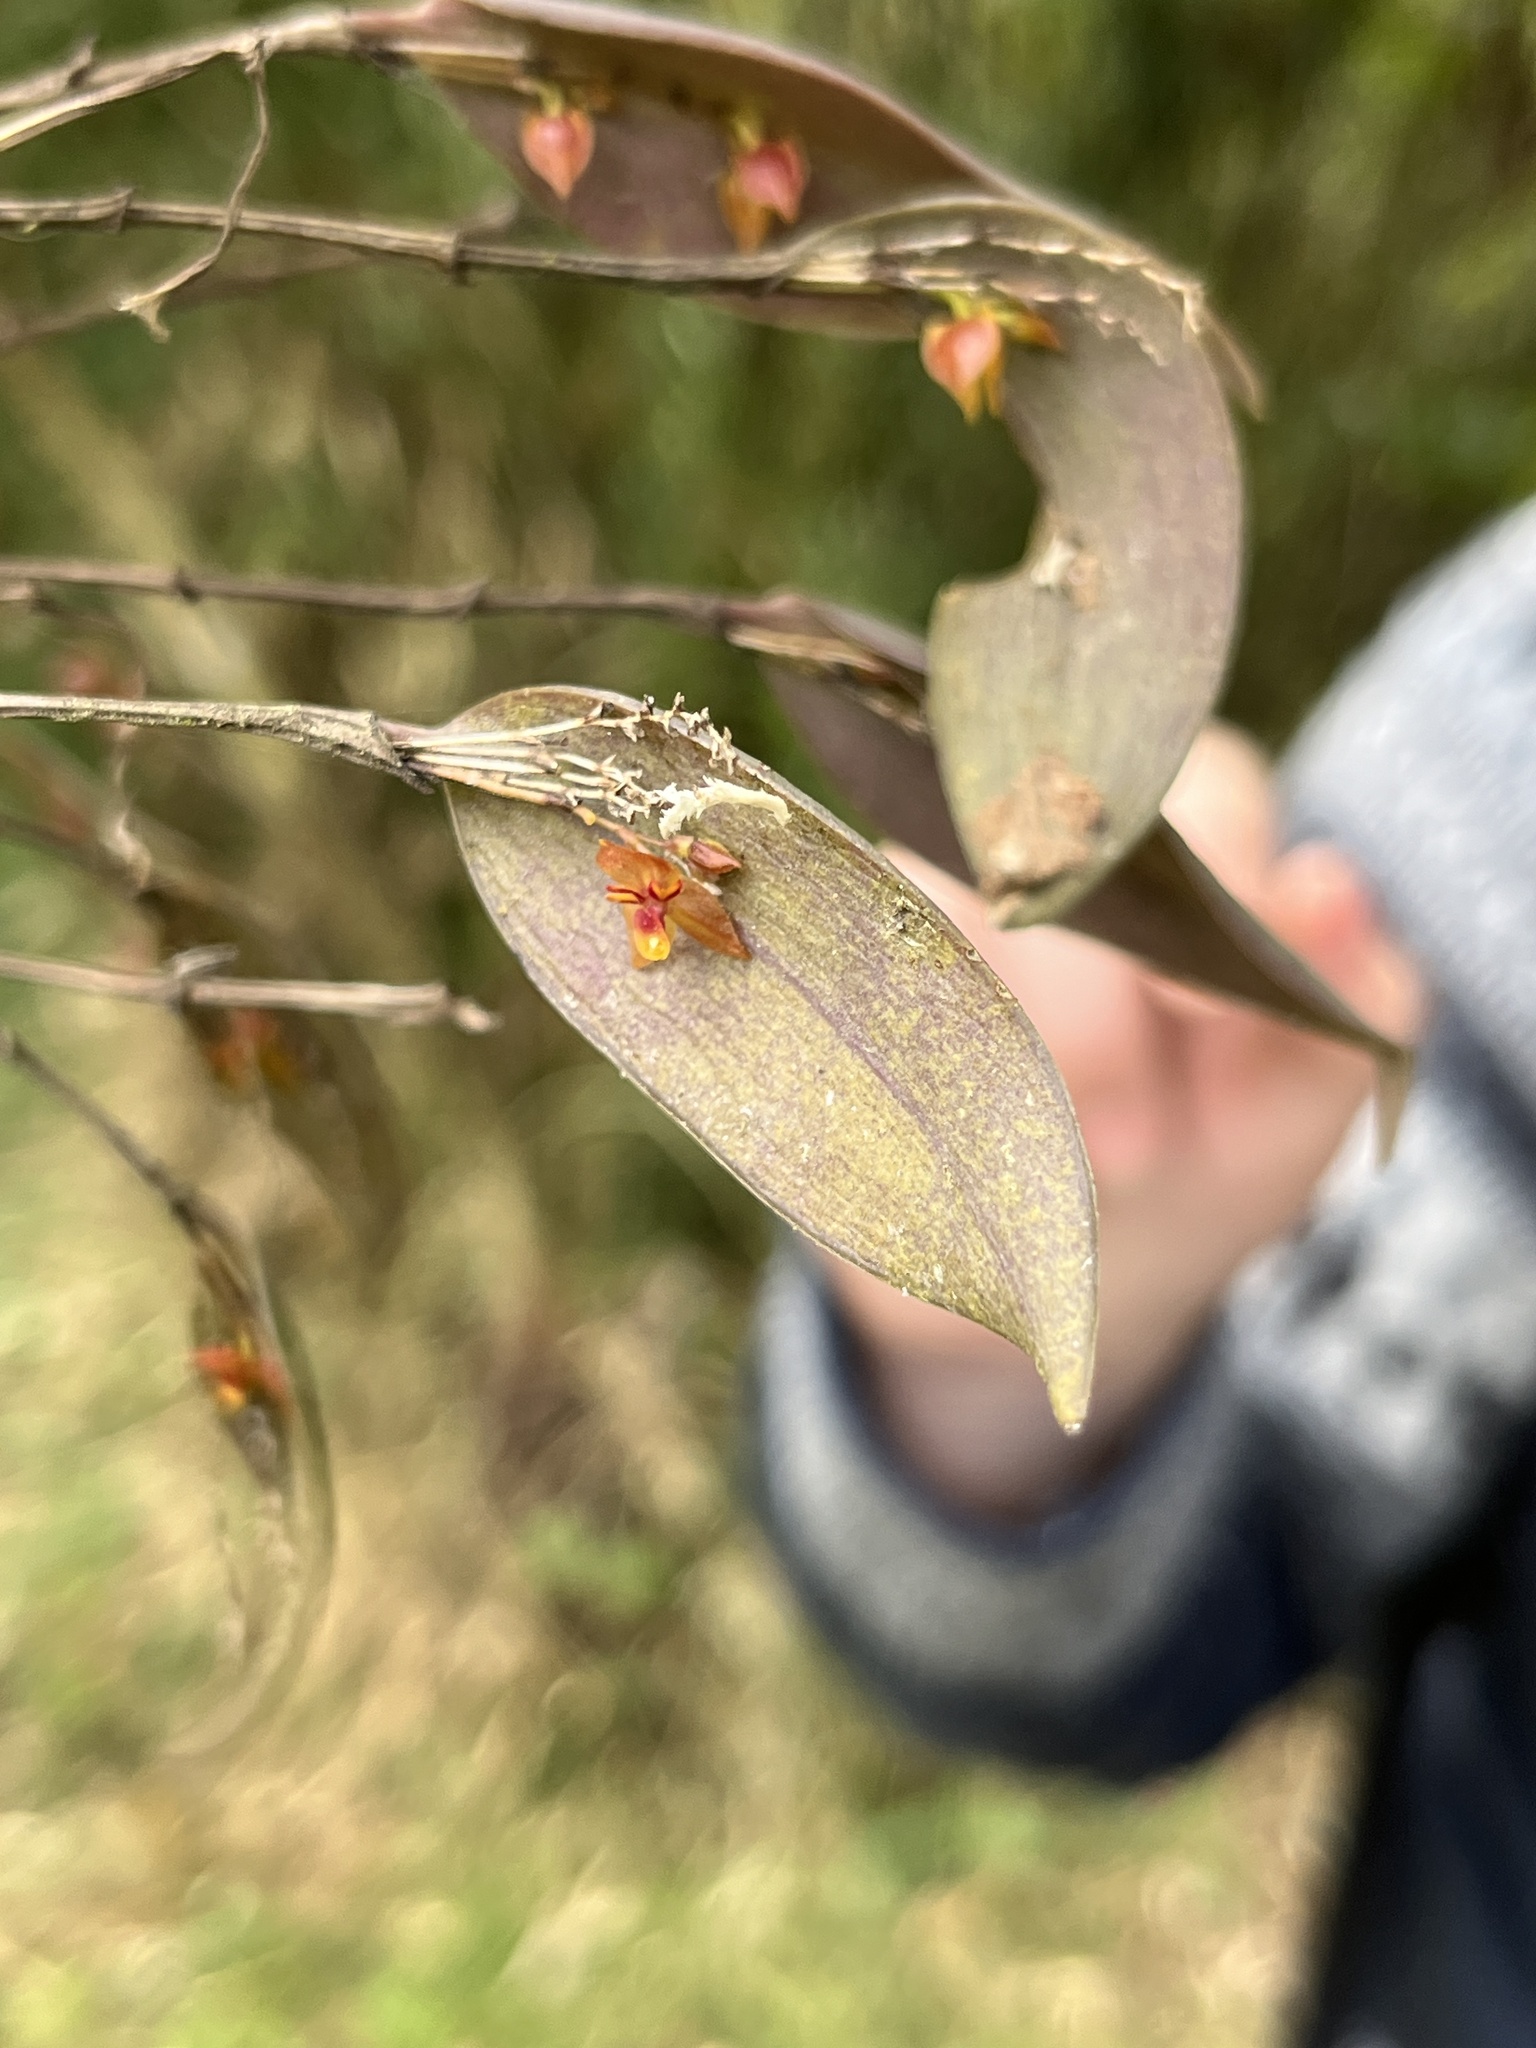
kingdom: Plantae
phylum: Tracheophyta
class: Liliopsida
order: Asparagales
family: Orchidaceae
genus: Lepanthes
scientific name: Lepanthes cuatrecasasii
